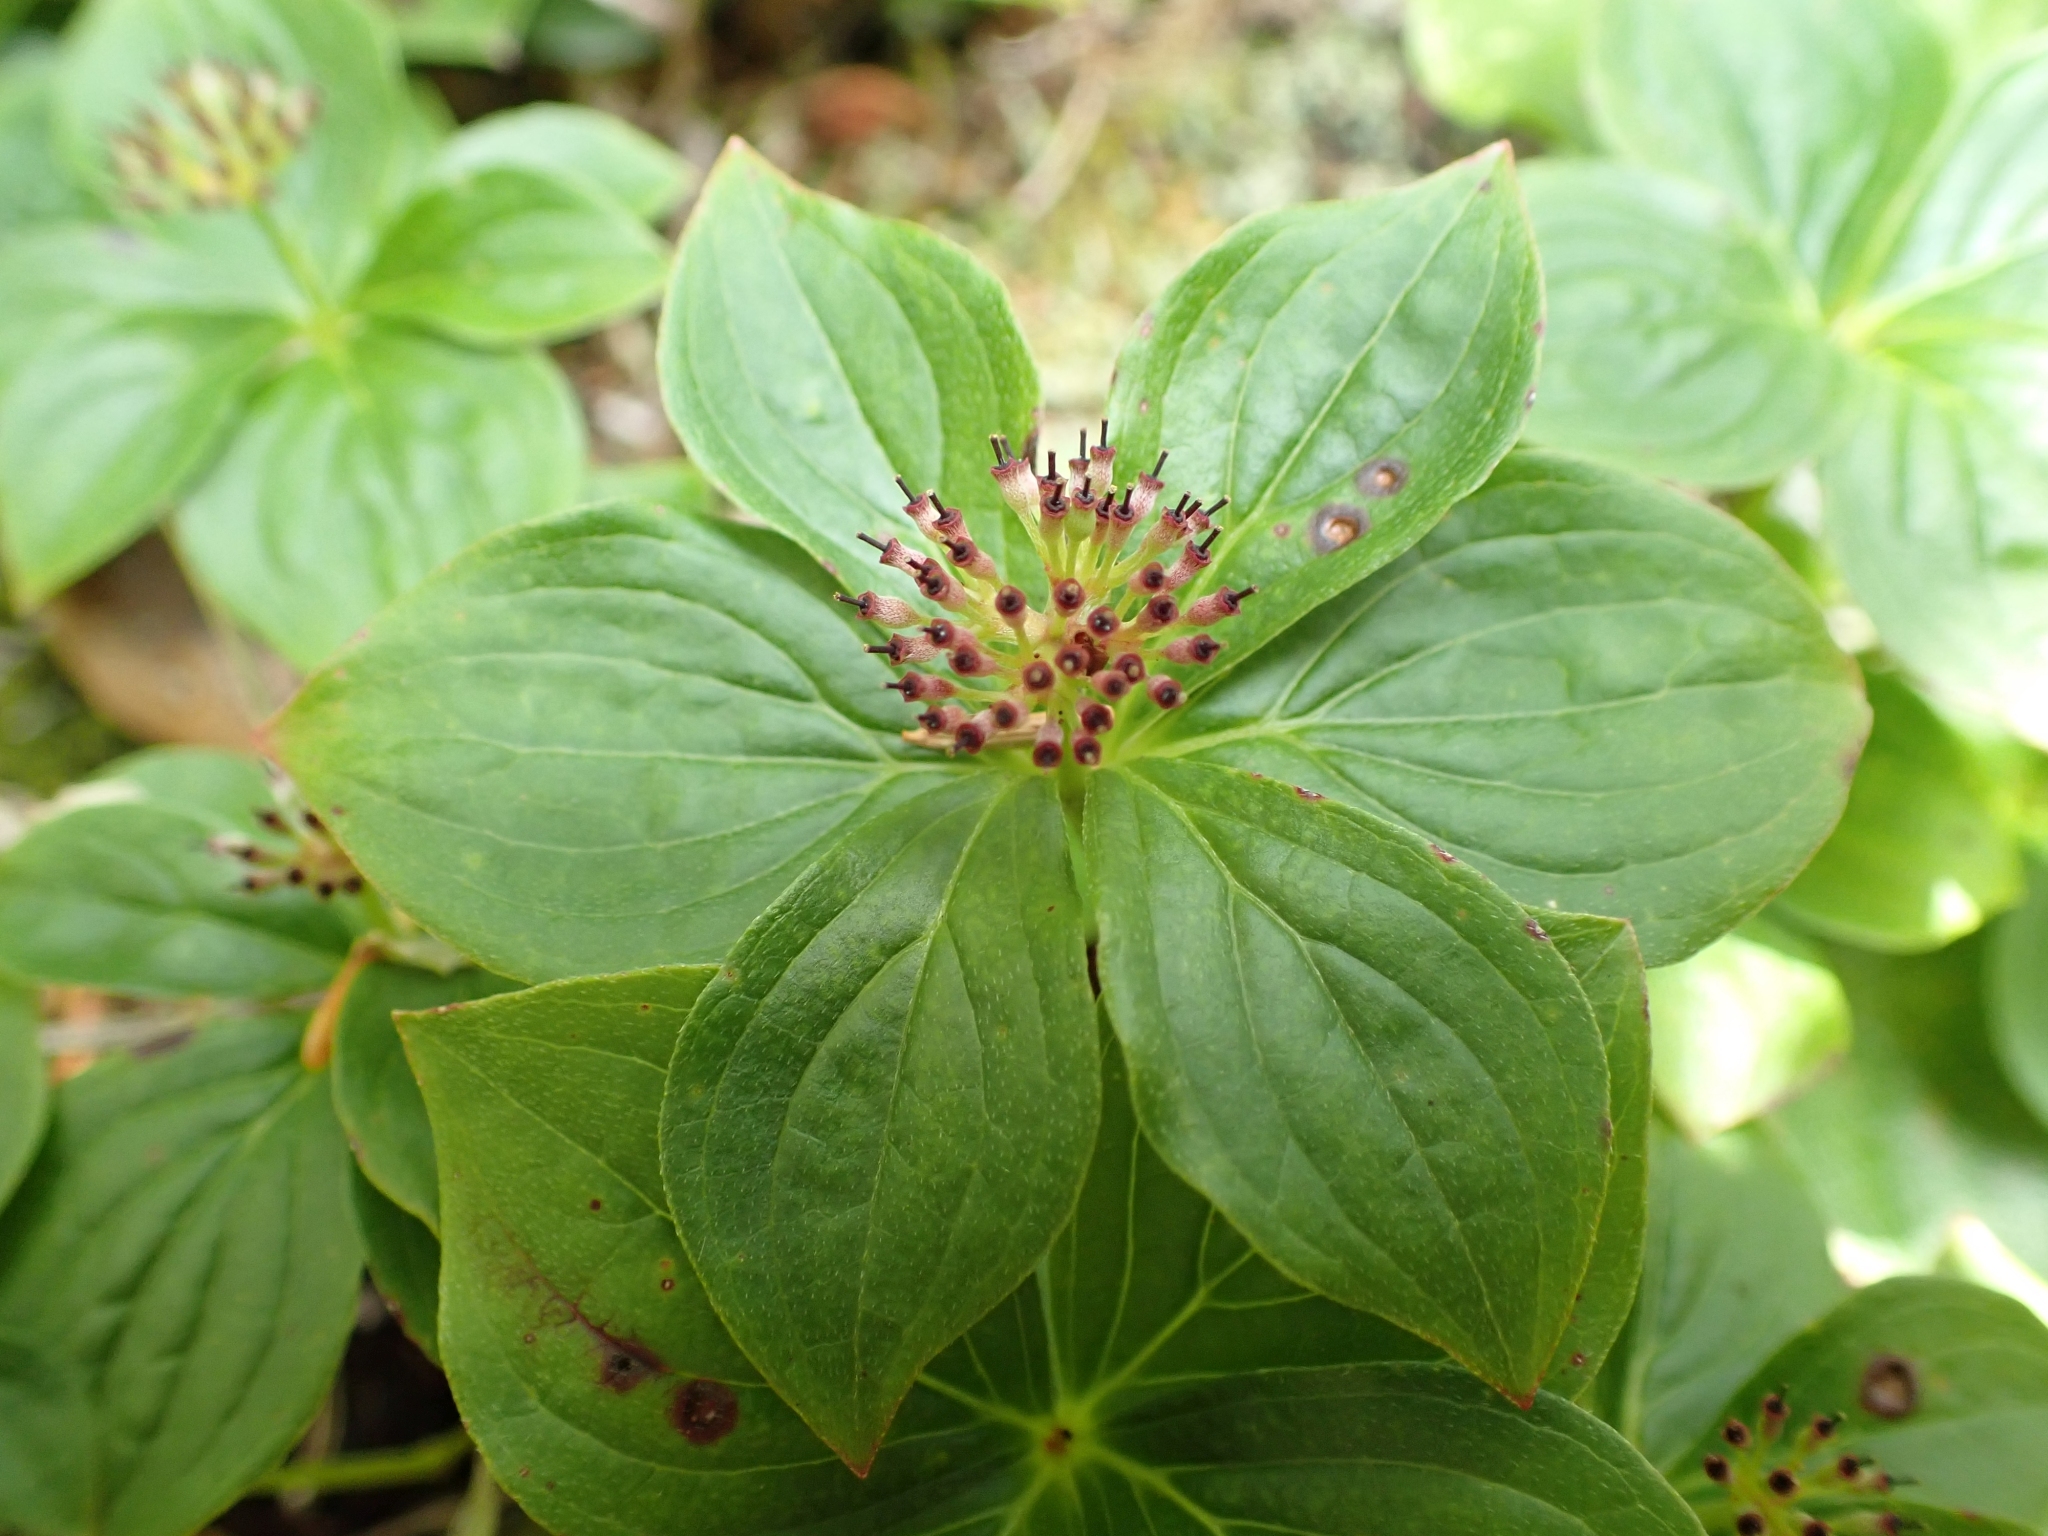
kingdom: Plantae
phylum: Tracheophyta
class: Magnoliopsida
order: Cornales
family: Cornaceae
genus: Cornus
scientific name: Cornus unalaschkensis
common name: Alaska bunchberry
